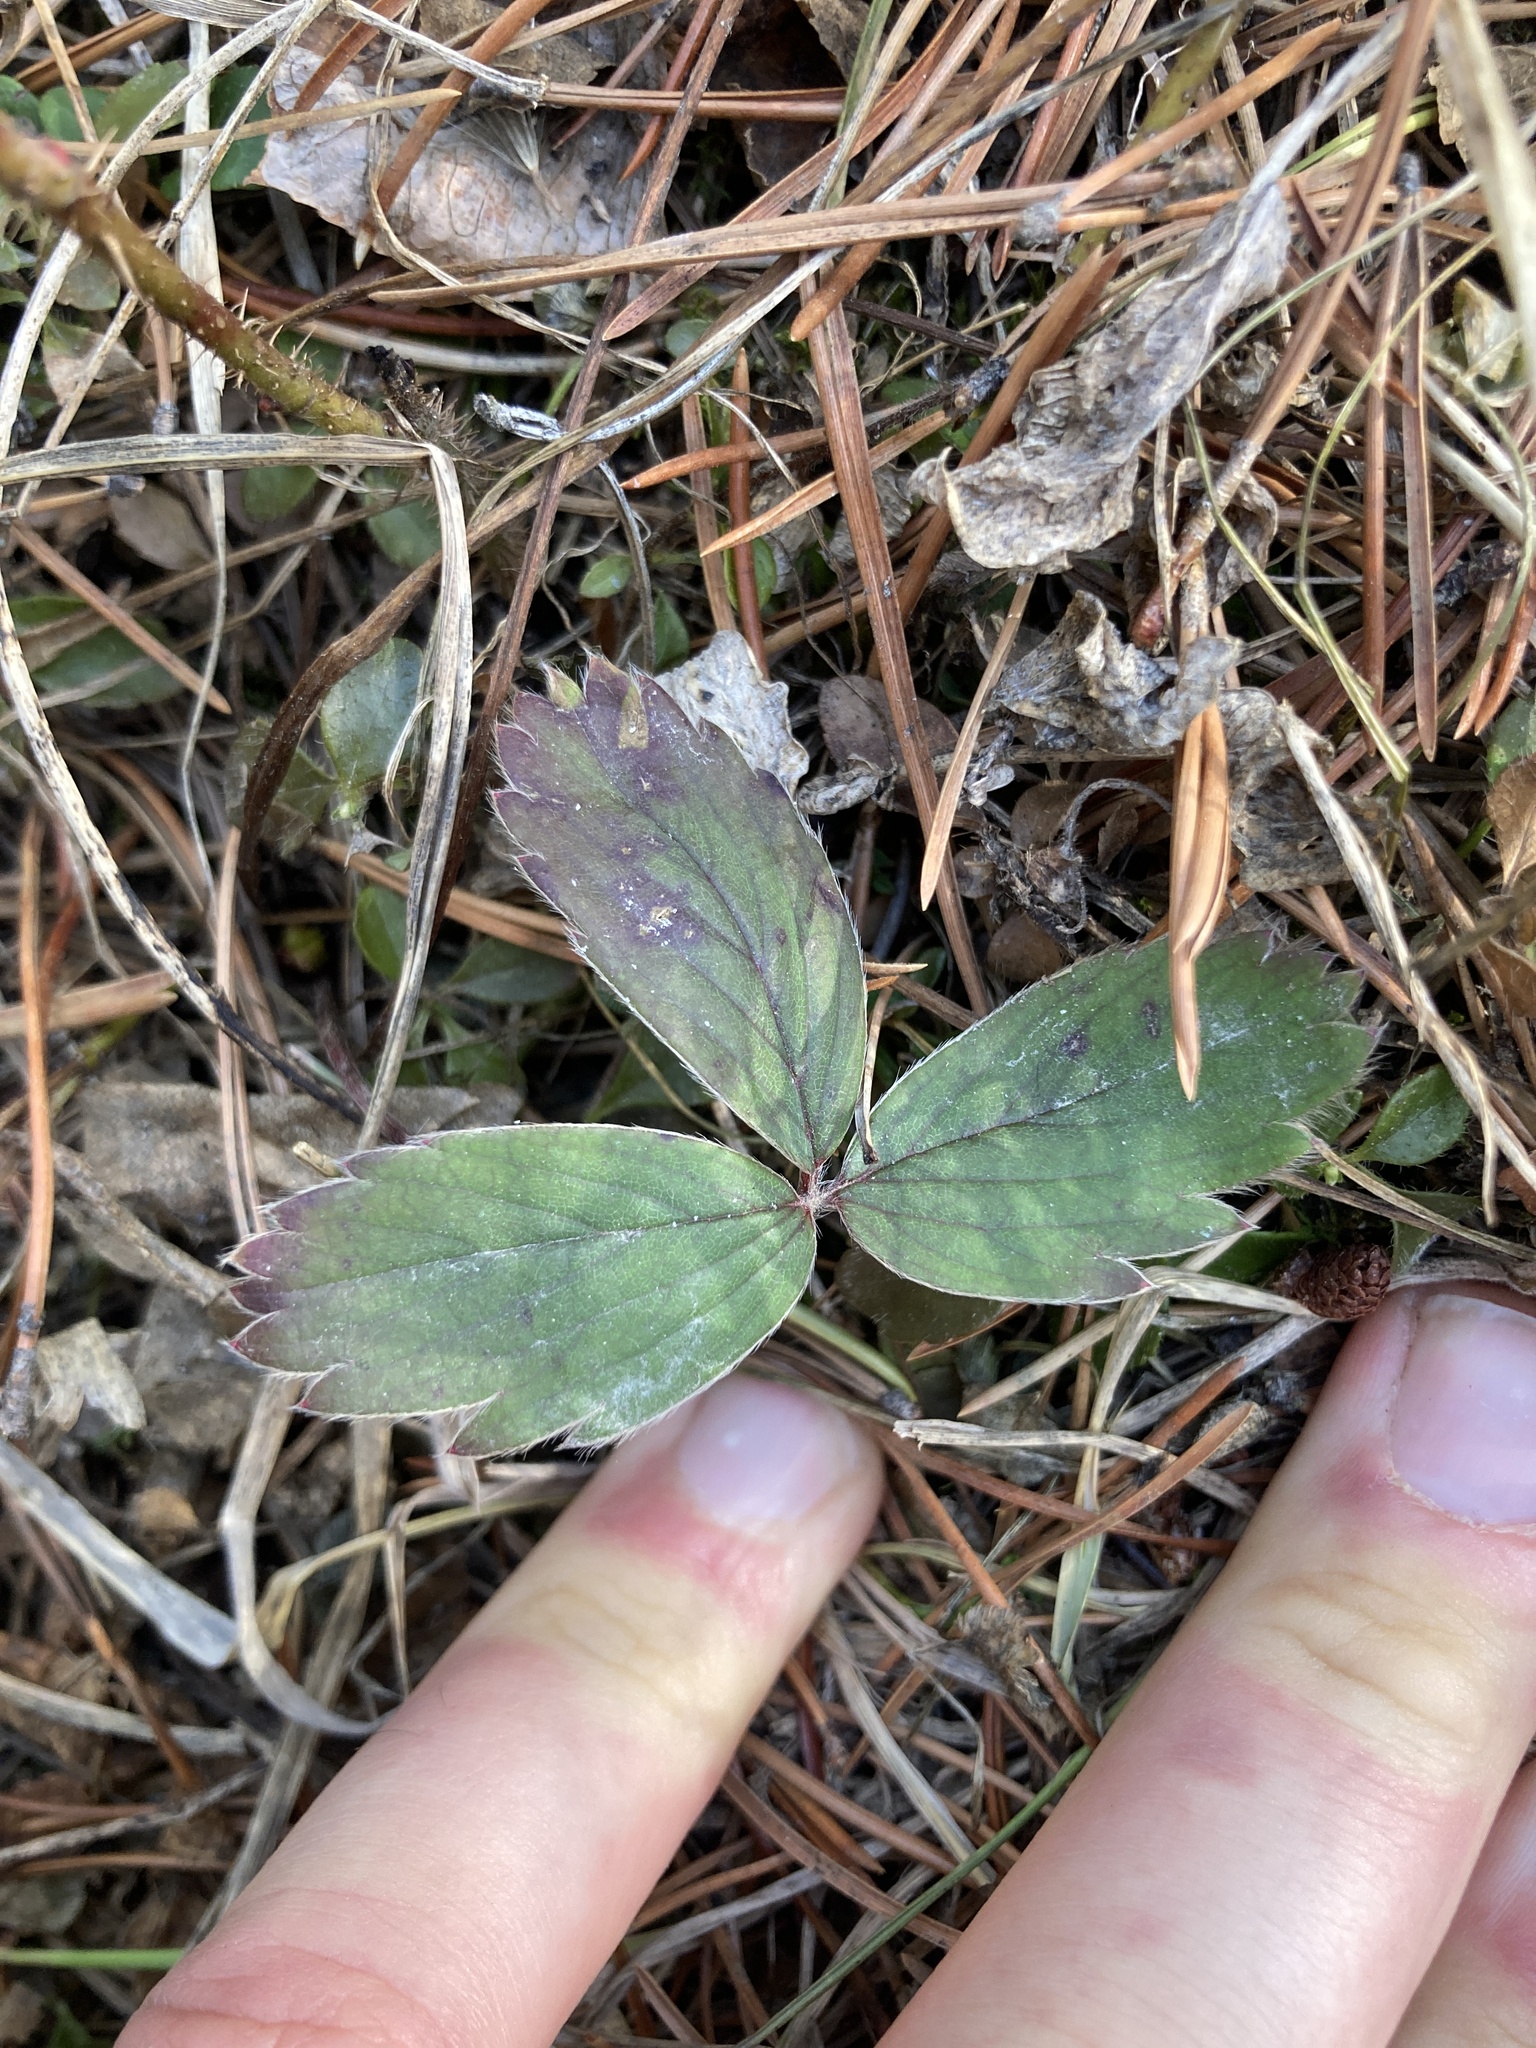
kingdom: Plantae
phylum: Tracheophyta
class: Magnoliopsida
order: Rosales
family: Rosaceae
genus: Fragaria
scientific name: Fragaria virginiana
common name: Thickleaved wild strawberry
